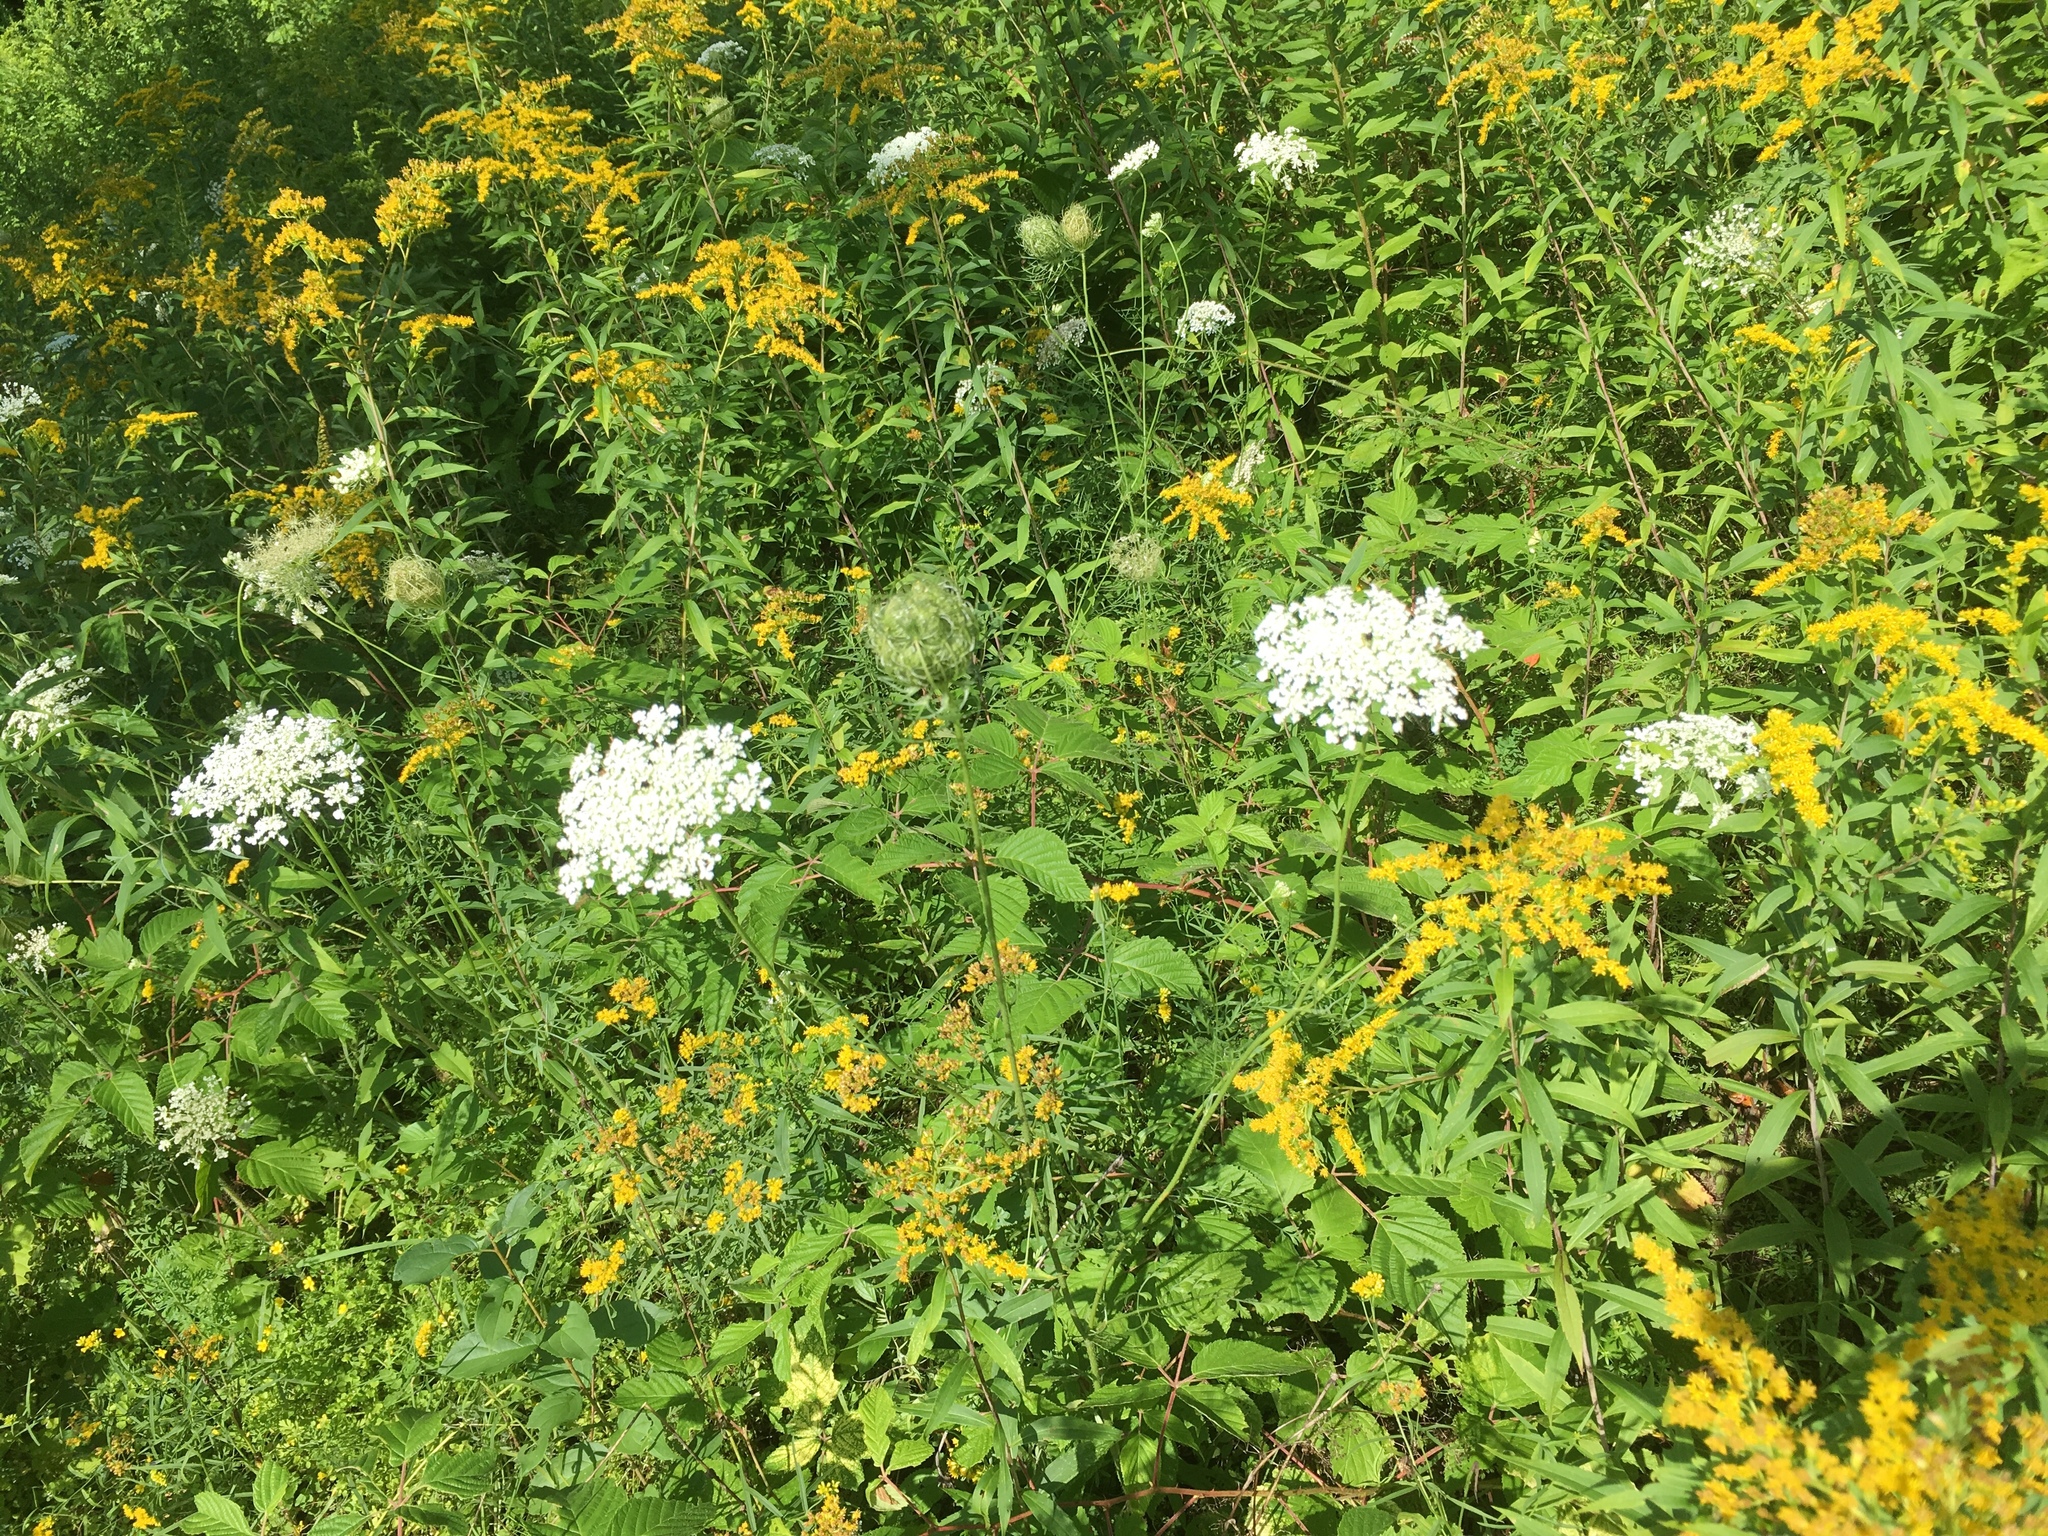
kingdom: Plantae
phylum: Tracheophyta
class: Magnoliopsida
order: Apiales
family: Apiaceae
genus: Daucus
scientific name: Daucus carota
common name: Wild carrot
